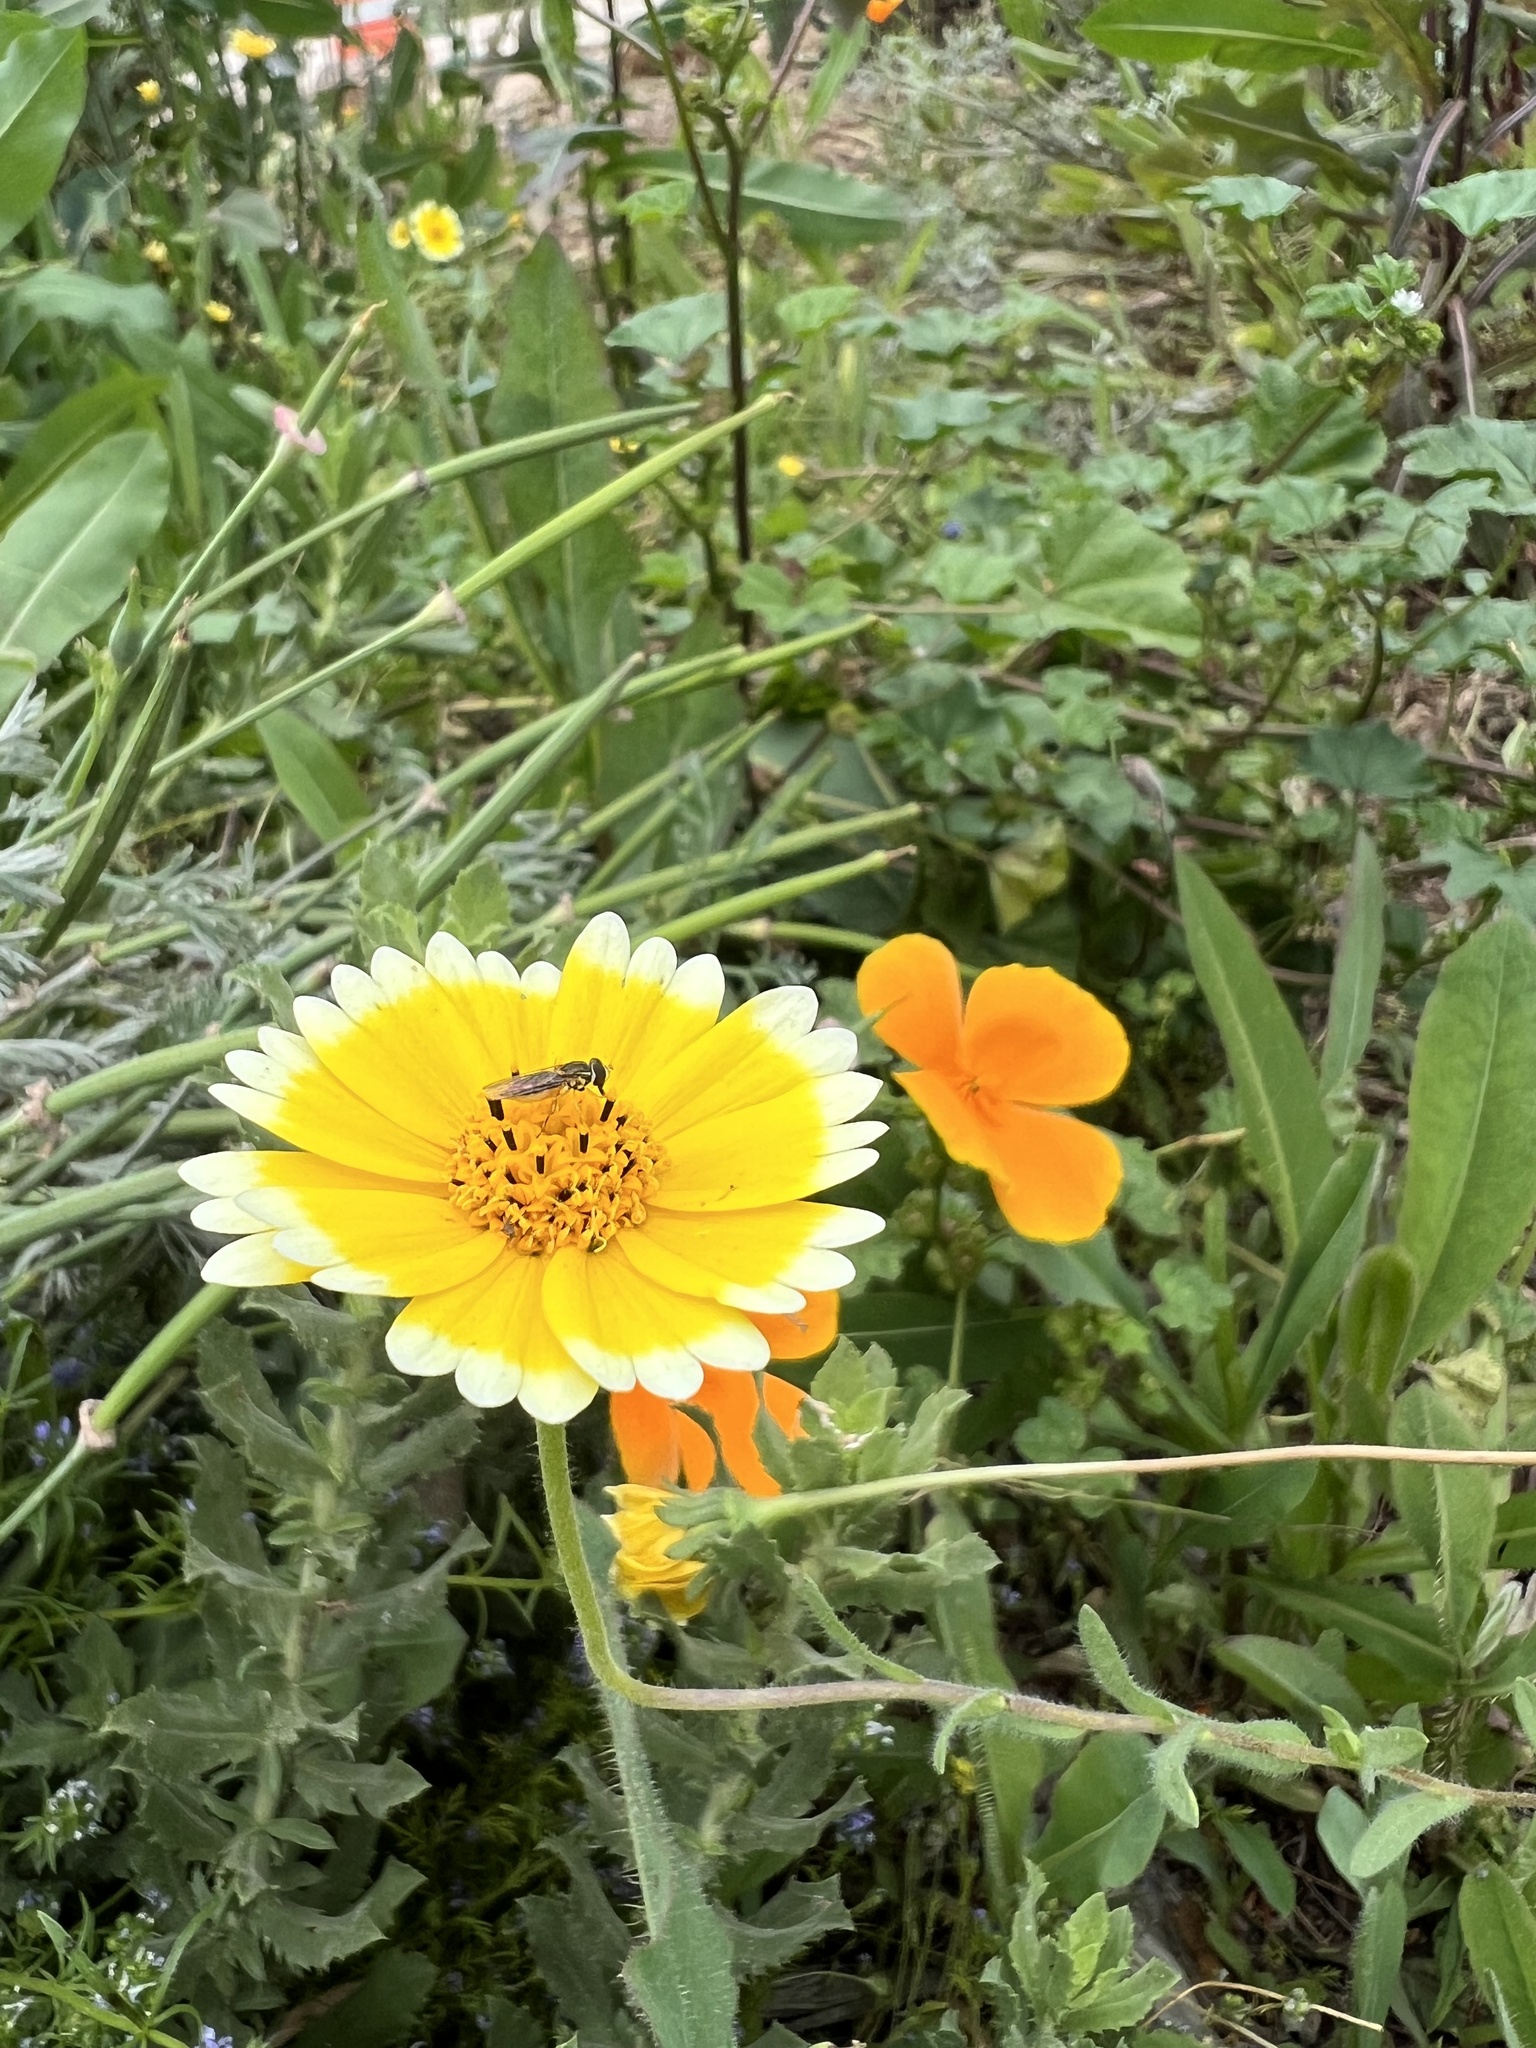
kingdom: Plantae
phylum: Tracheophyta
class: Magnoliopsida
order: Asterales
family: Asteraceae
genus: Layia
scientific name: Layia platyglossa
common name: Tidy-tips
